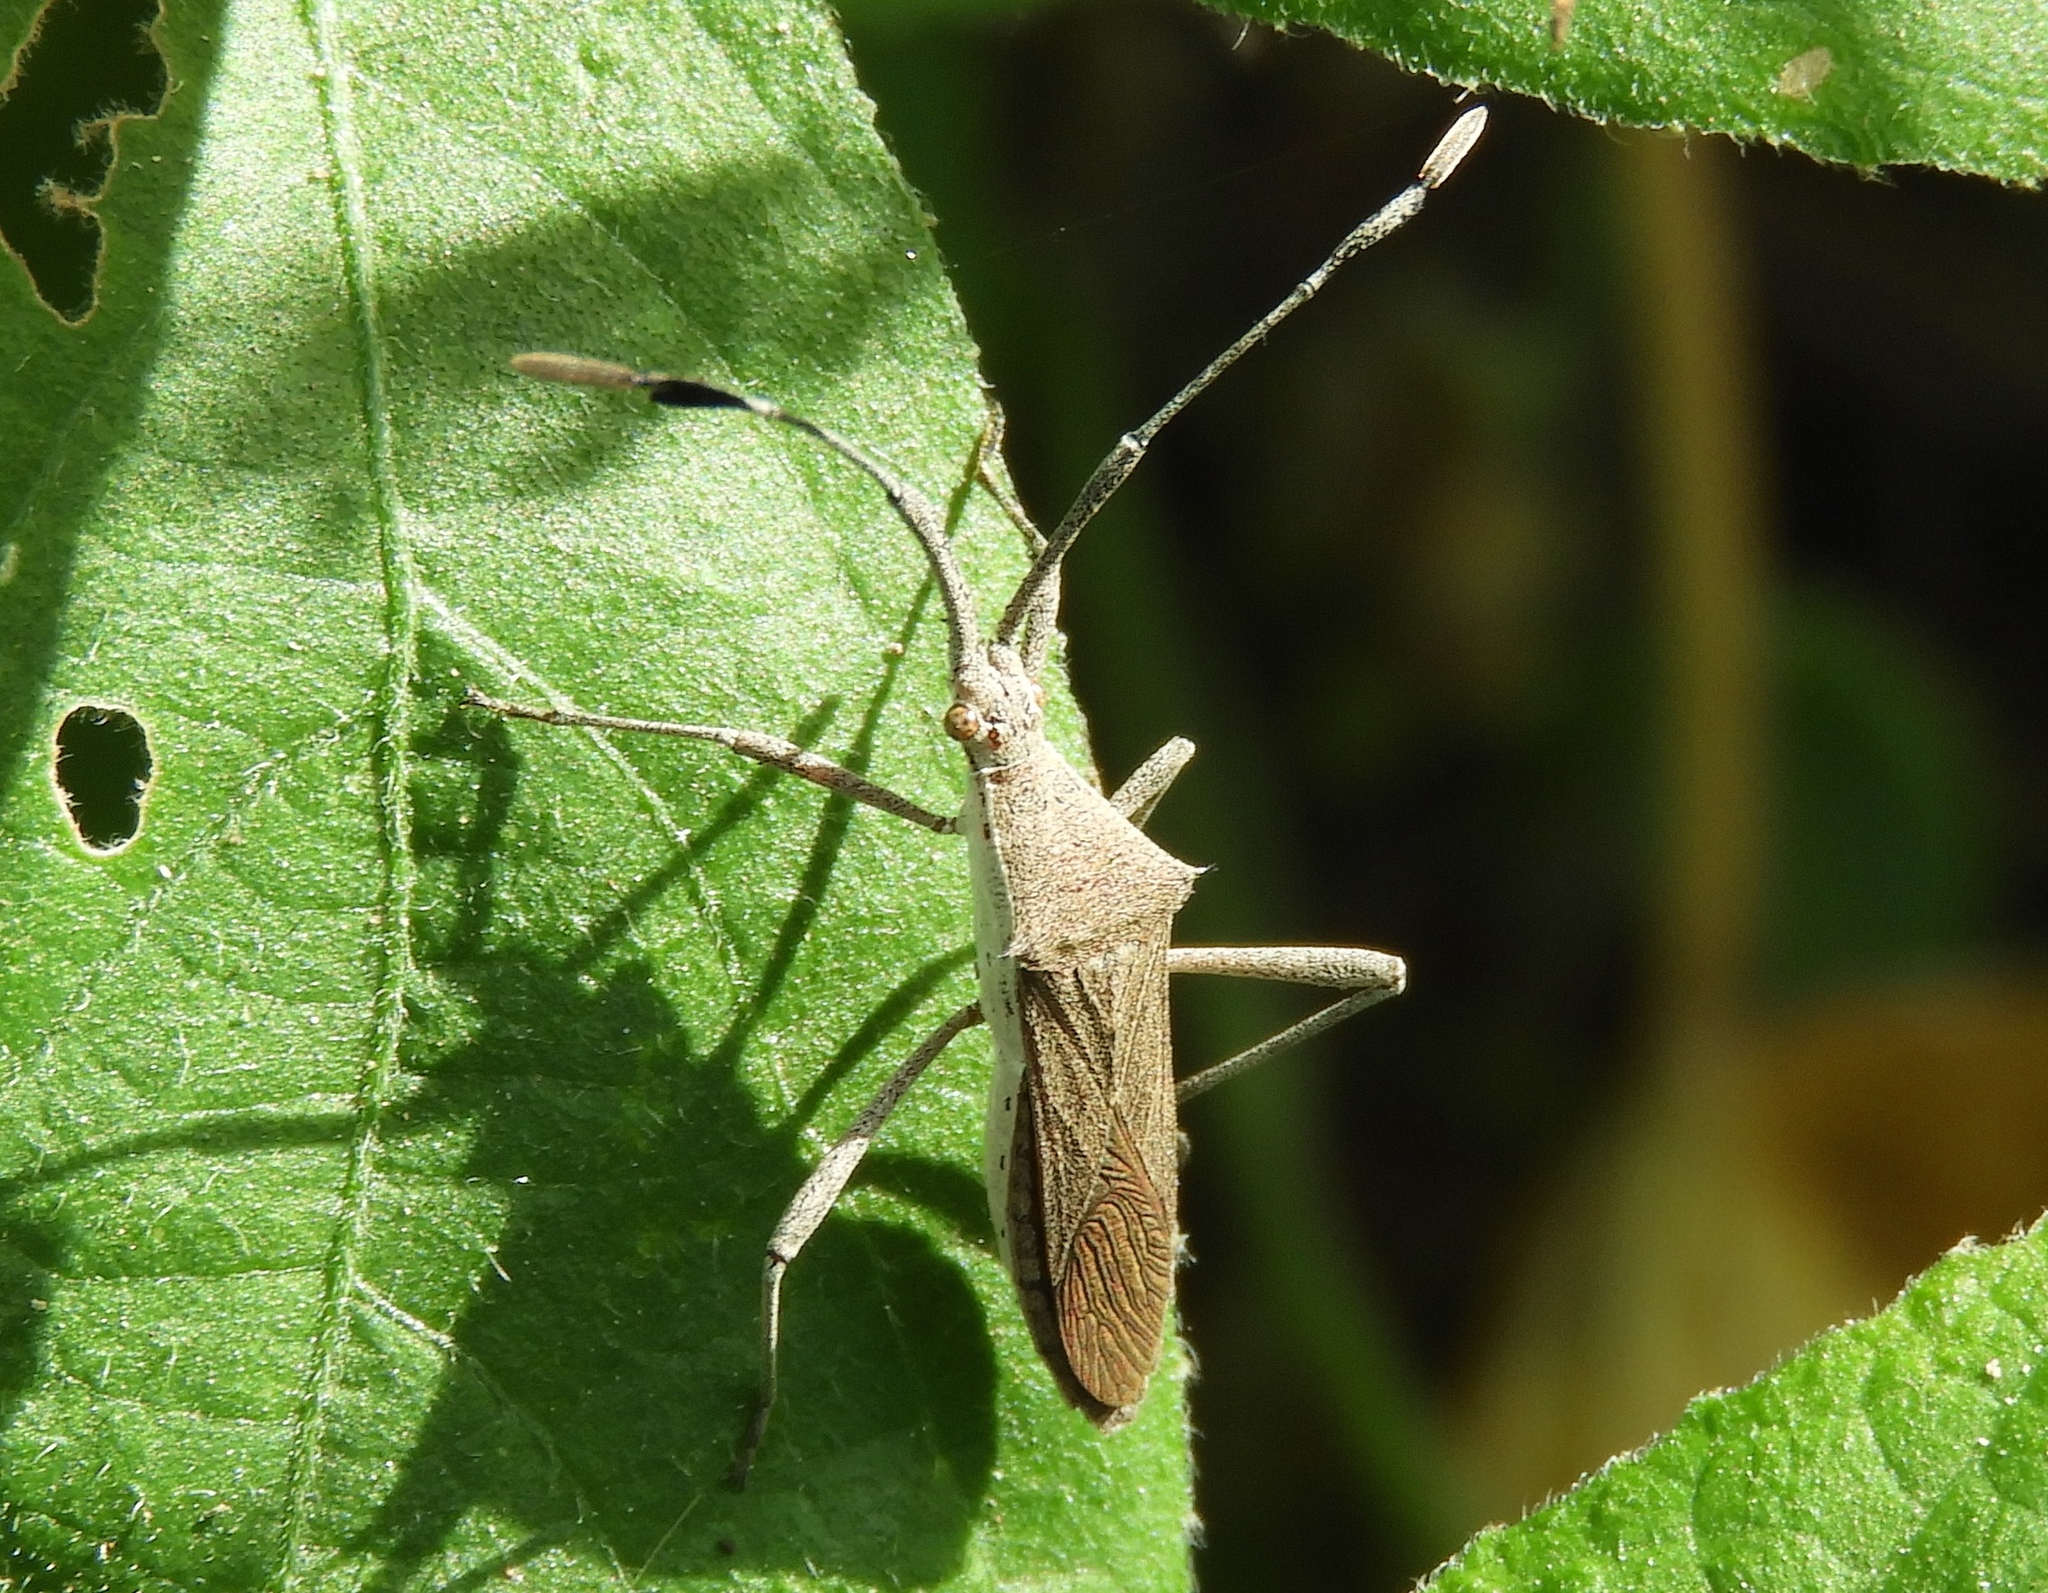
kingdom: Animalia
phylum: Arthropoda
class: Insecta
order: Hemiptera
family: Coreidae
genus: Chariesterus
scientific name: Chariesterus
